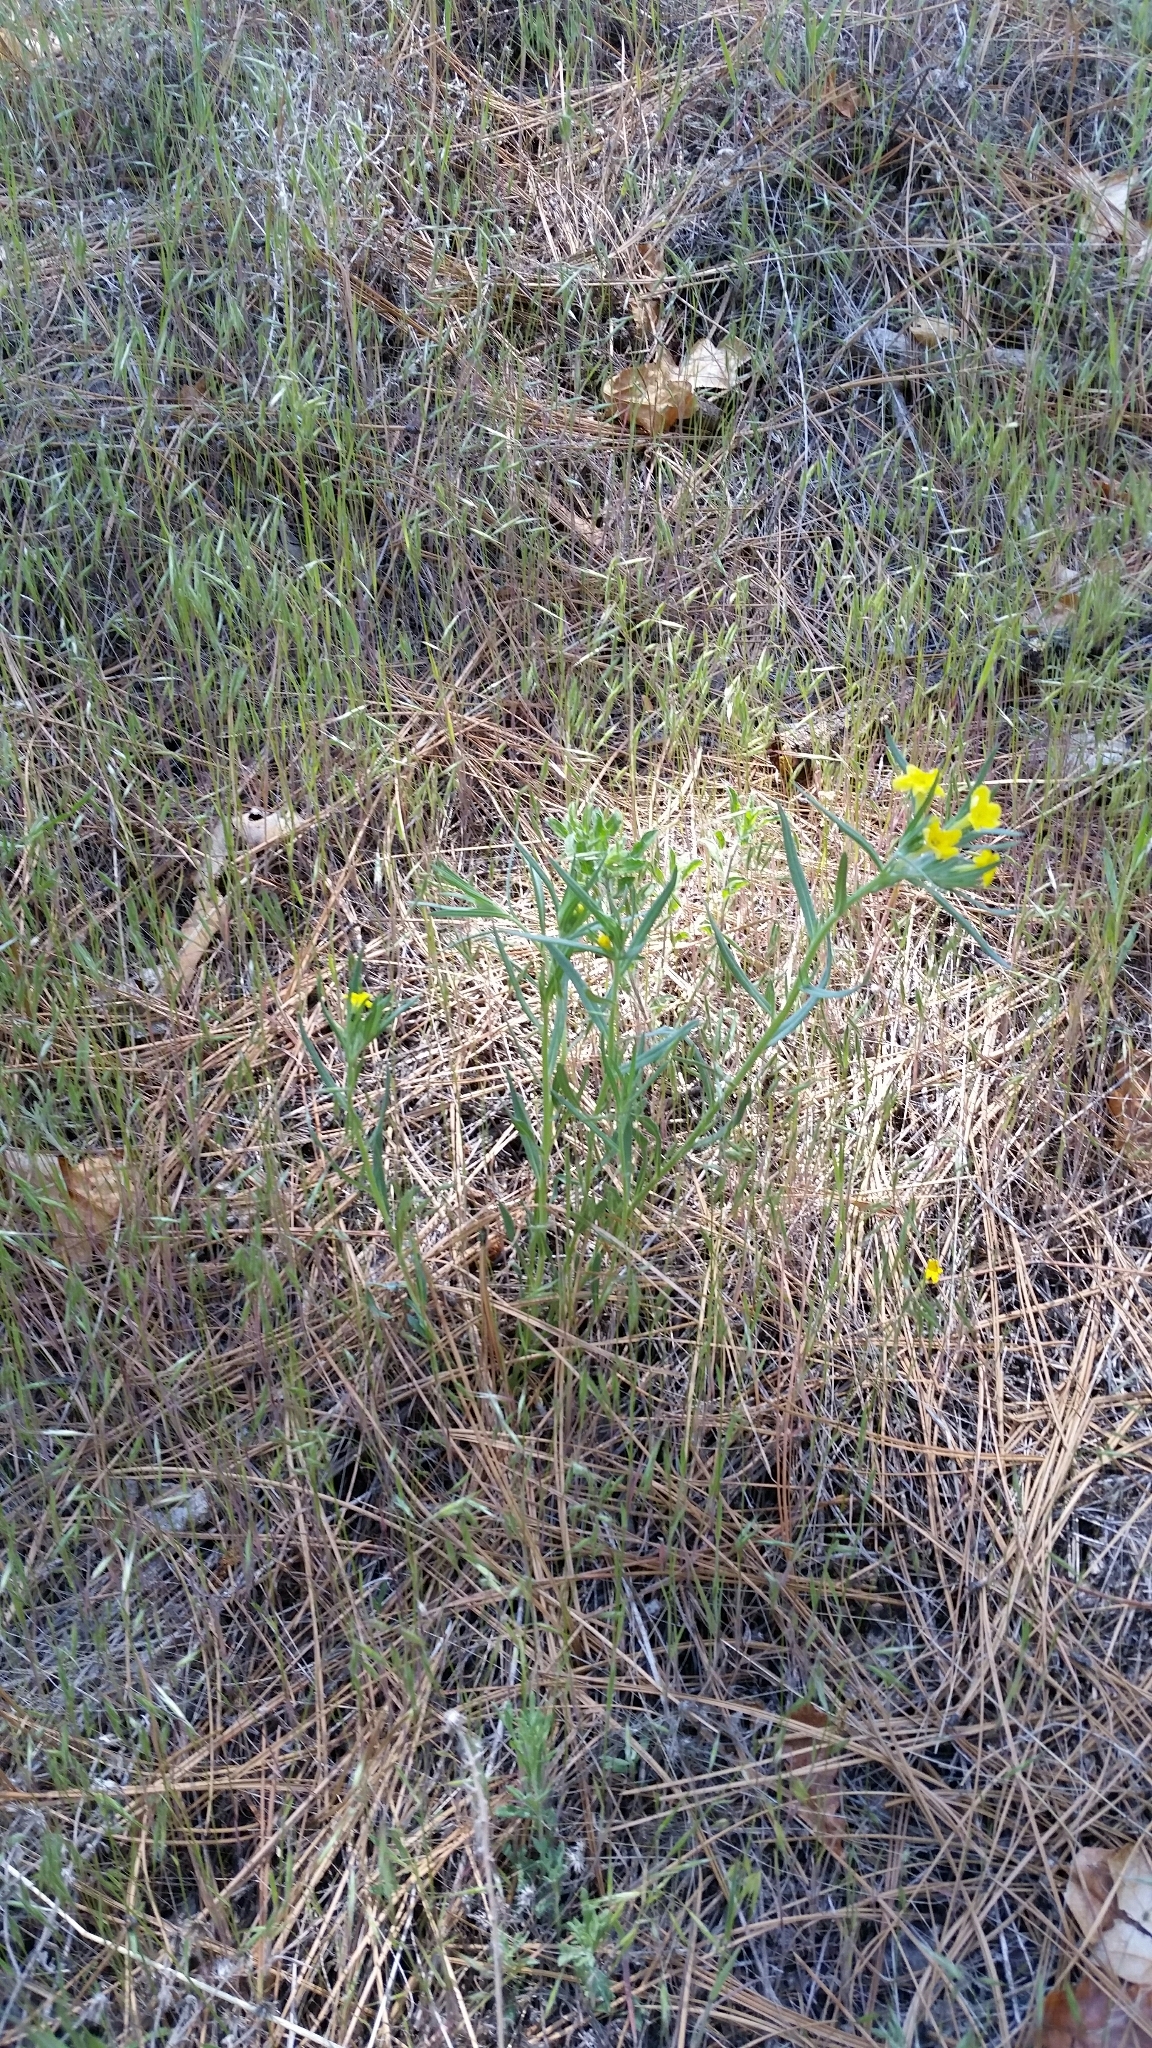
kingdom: Plantae
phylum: Tracheophyta
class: Magnoliopsida
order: Boraginales
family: Boraginaceae
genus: Lithospermum
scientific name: Lithospermum multiflorum
